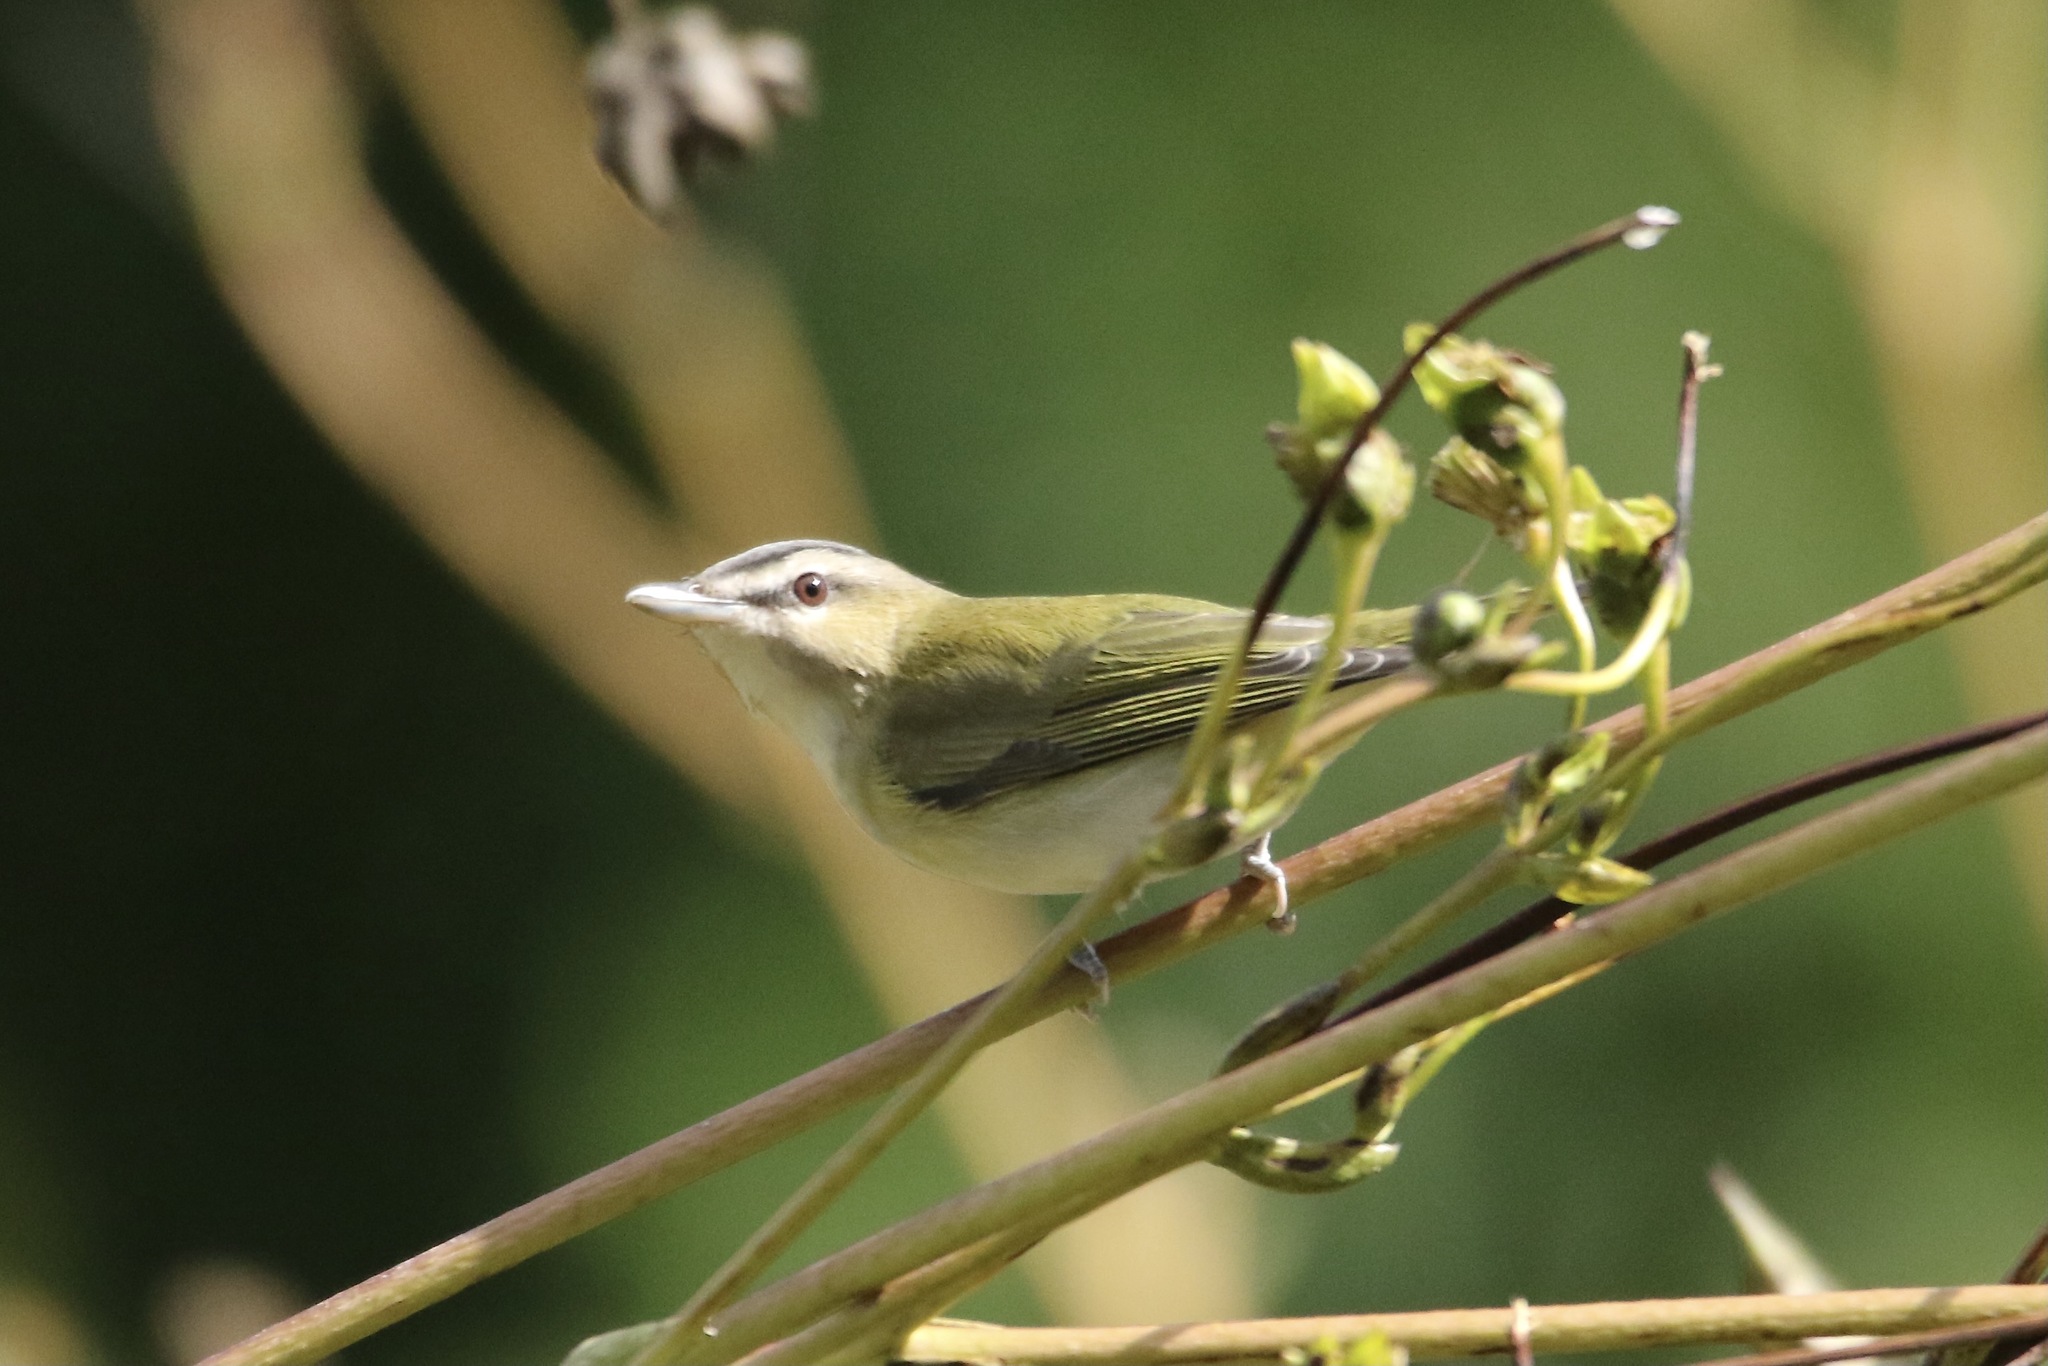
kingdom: Animalia
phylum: Chordata
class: Aves
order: Passeriformes
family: Vireonidae
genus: Vireo
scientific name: Vireo olivaceus
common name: Red-eyed vireo
